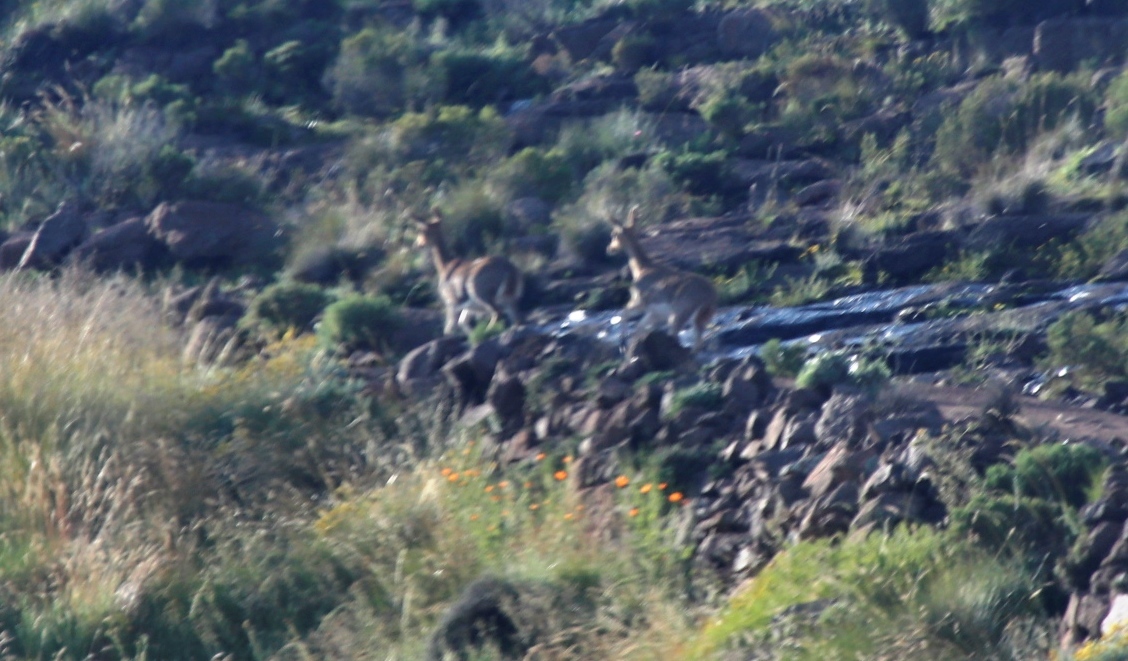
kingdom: Animalia
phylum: Chordata
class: Mammalia
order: Artiodactyla
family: Bovidae
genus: Redunca
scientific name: Redunca fulvorufula
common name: Mountain reedbuck
